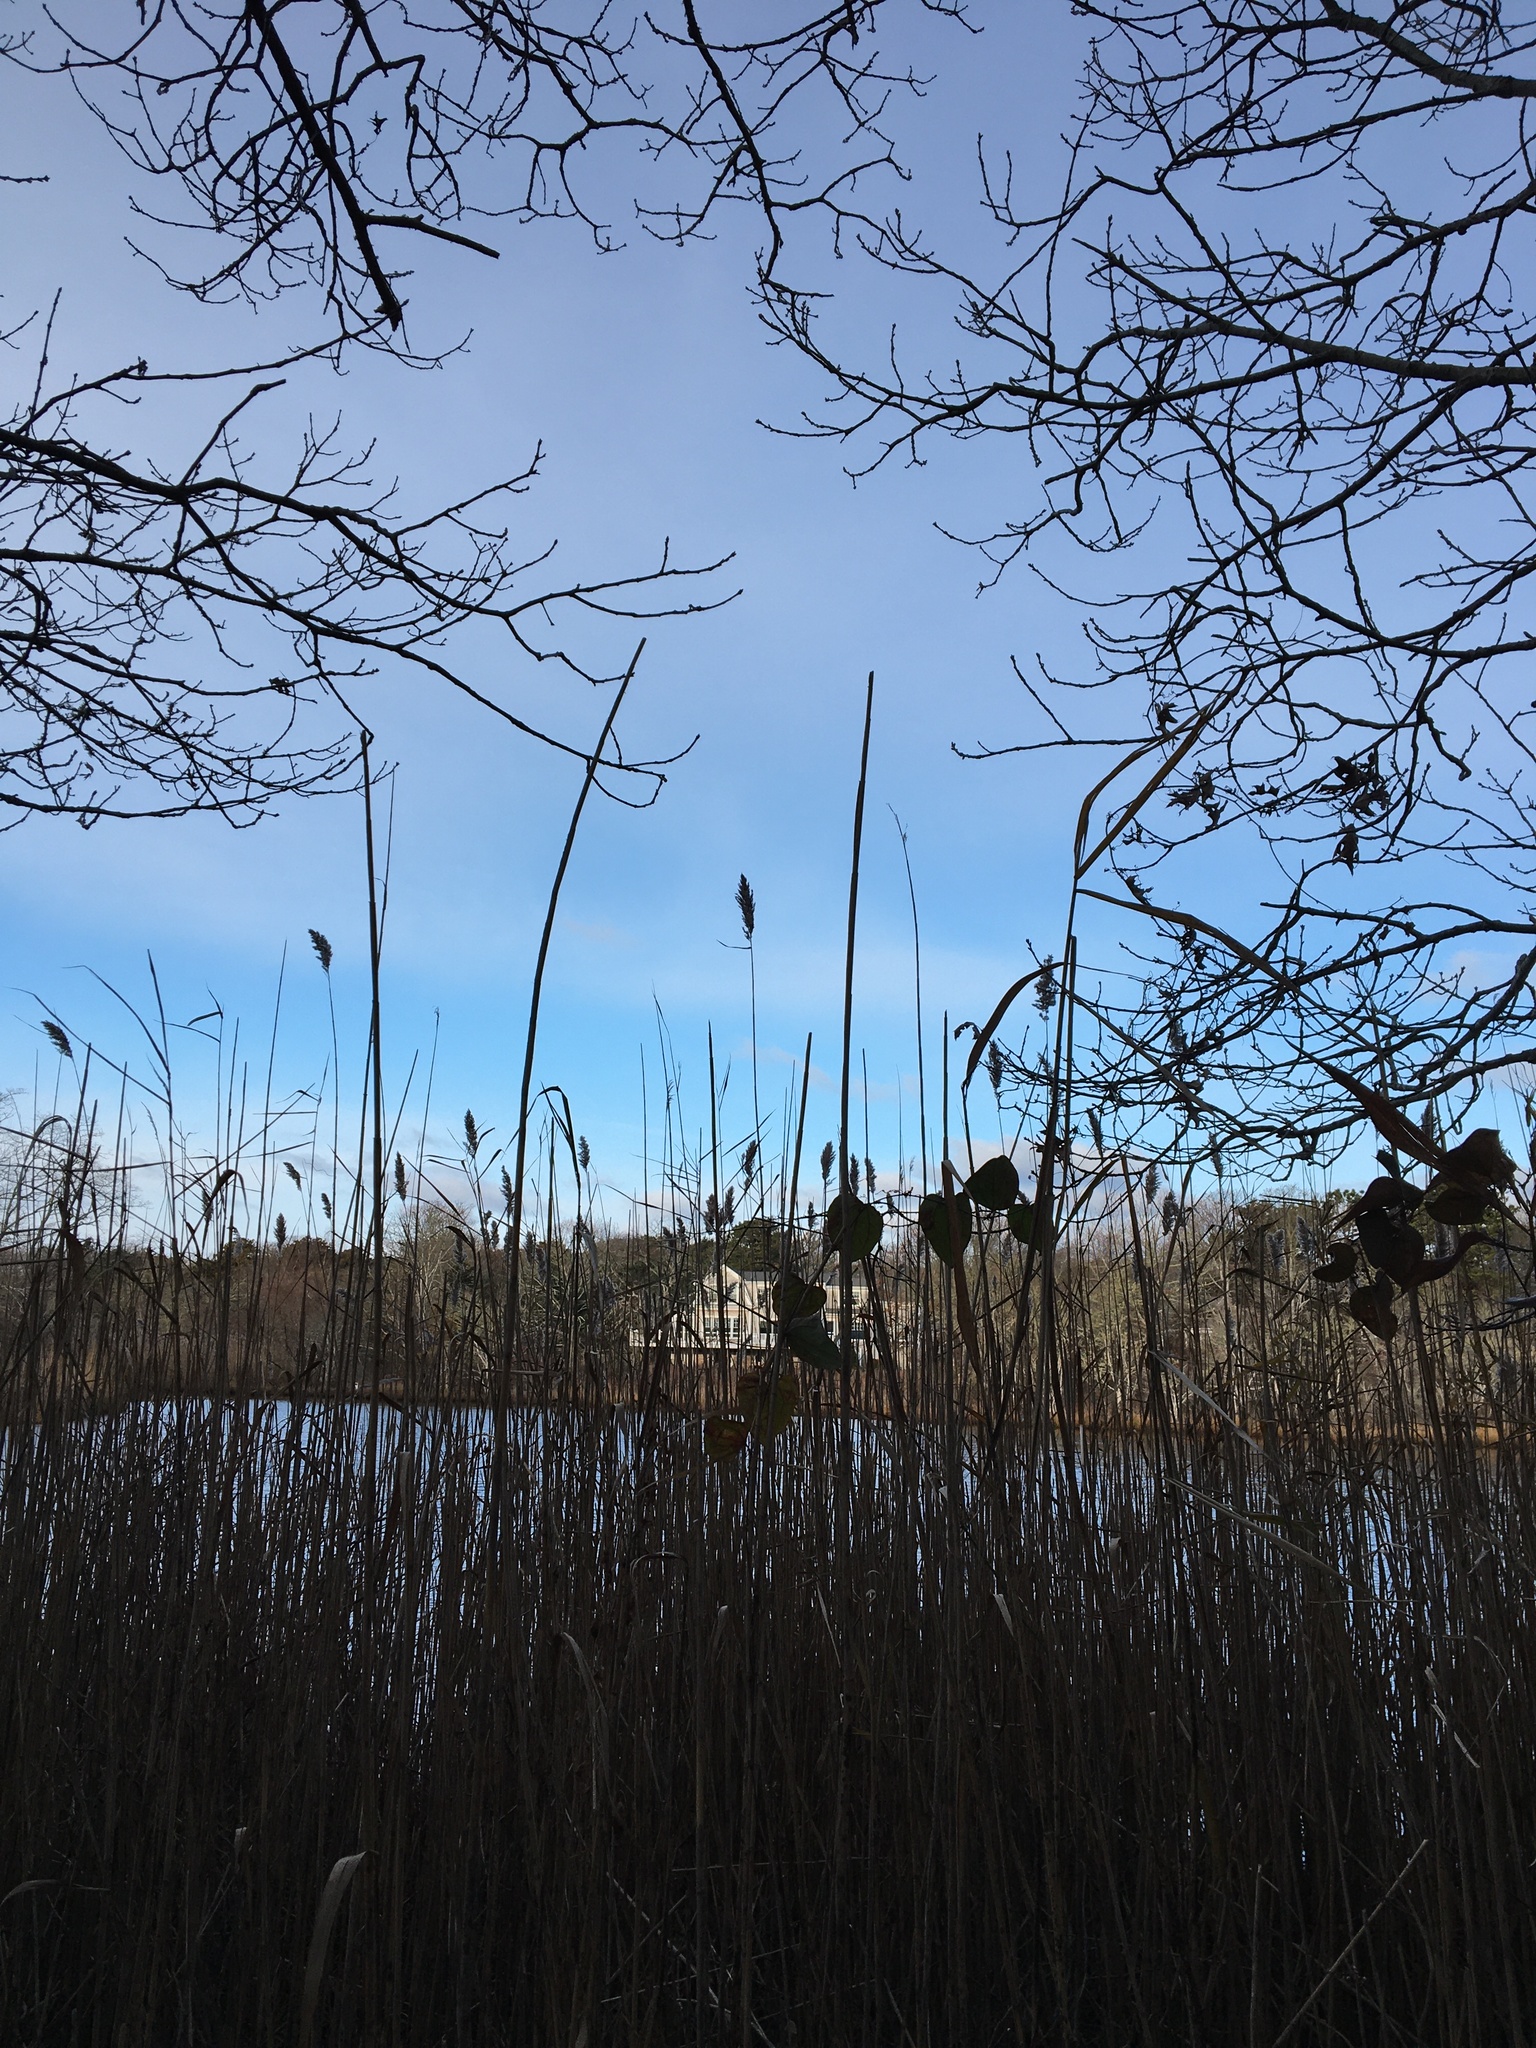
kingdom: Plantae
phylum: Tracheophyta
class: Liliopsida
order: Poales
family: Poaceae
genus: Phragmites
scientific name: Phragmites australis
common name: Common reed
